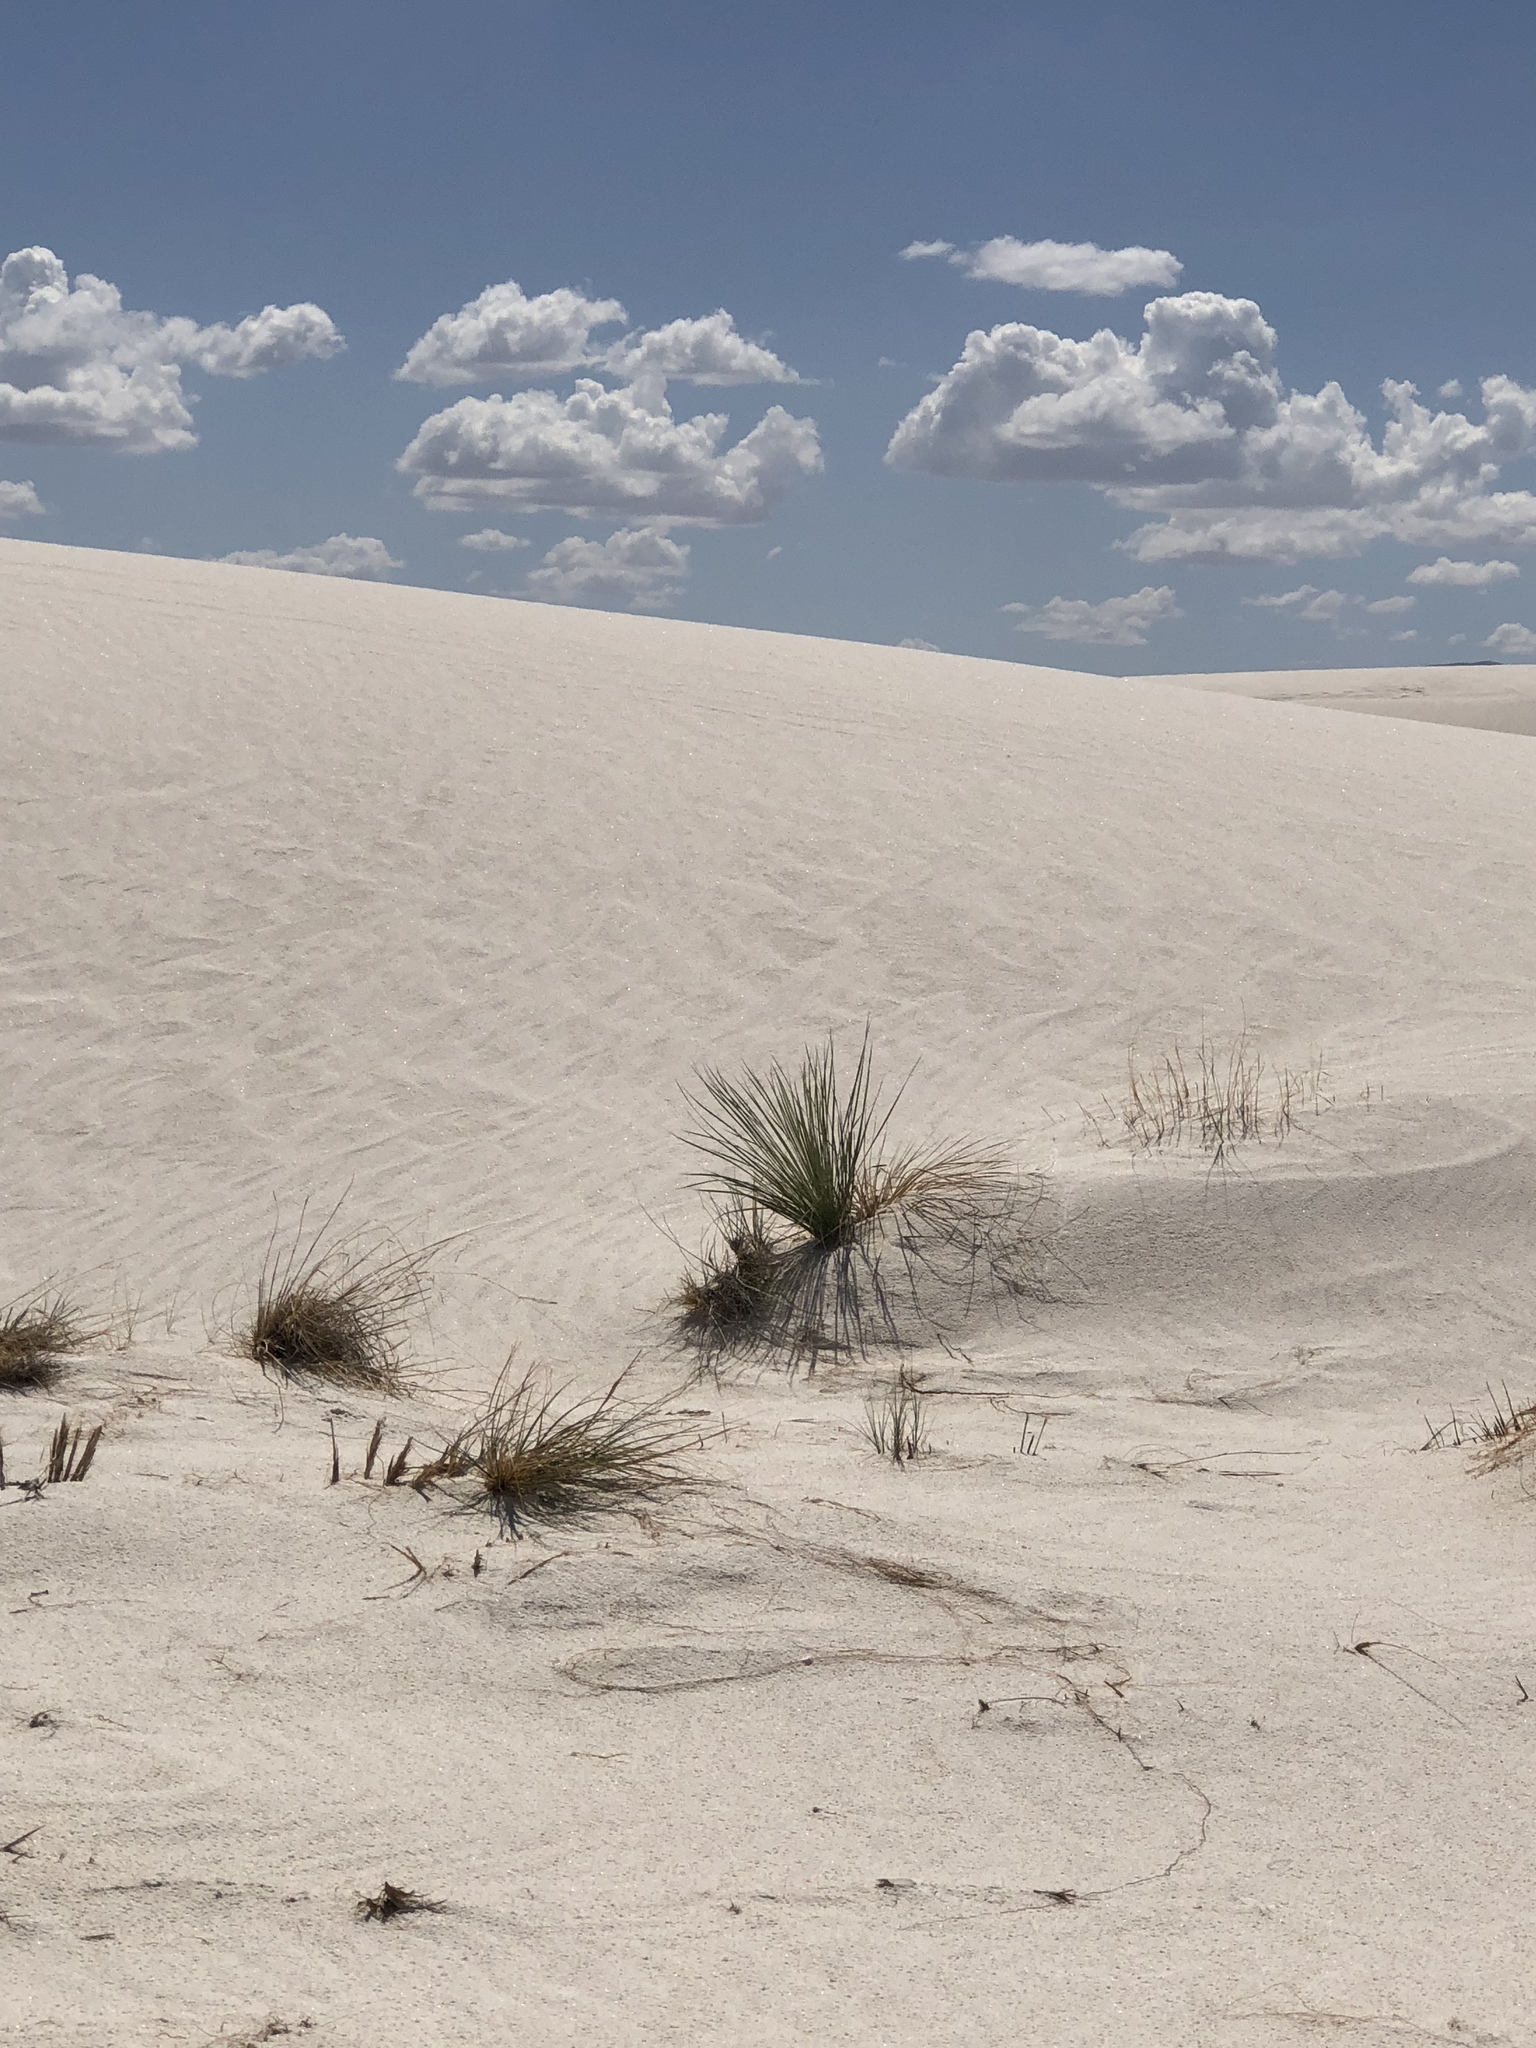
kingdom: Plantae
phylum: Tracheophyta
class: Liliopsida
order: Asparagales
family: Asparagaceae
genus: Yucca
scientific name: Yucca elata
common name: Palmella
